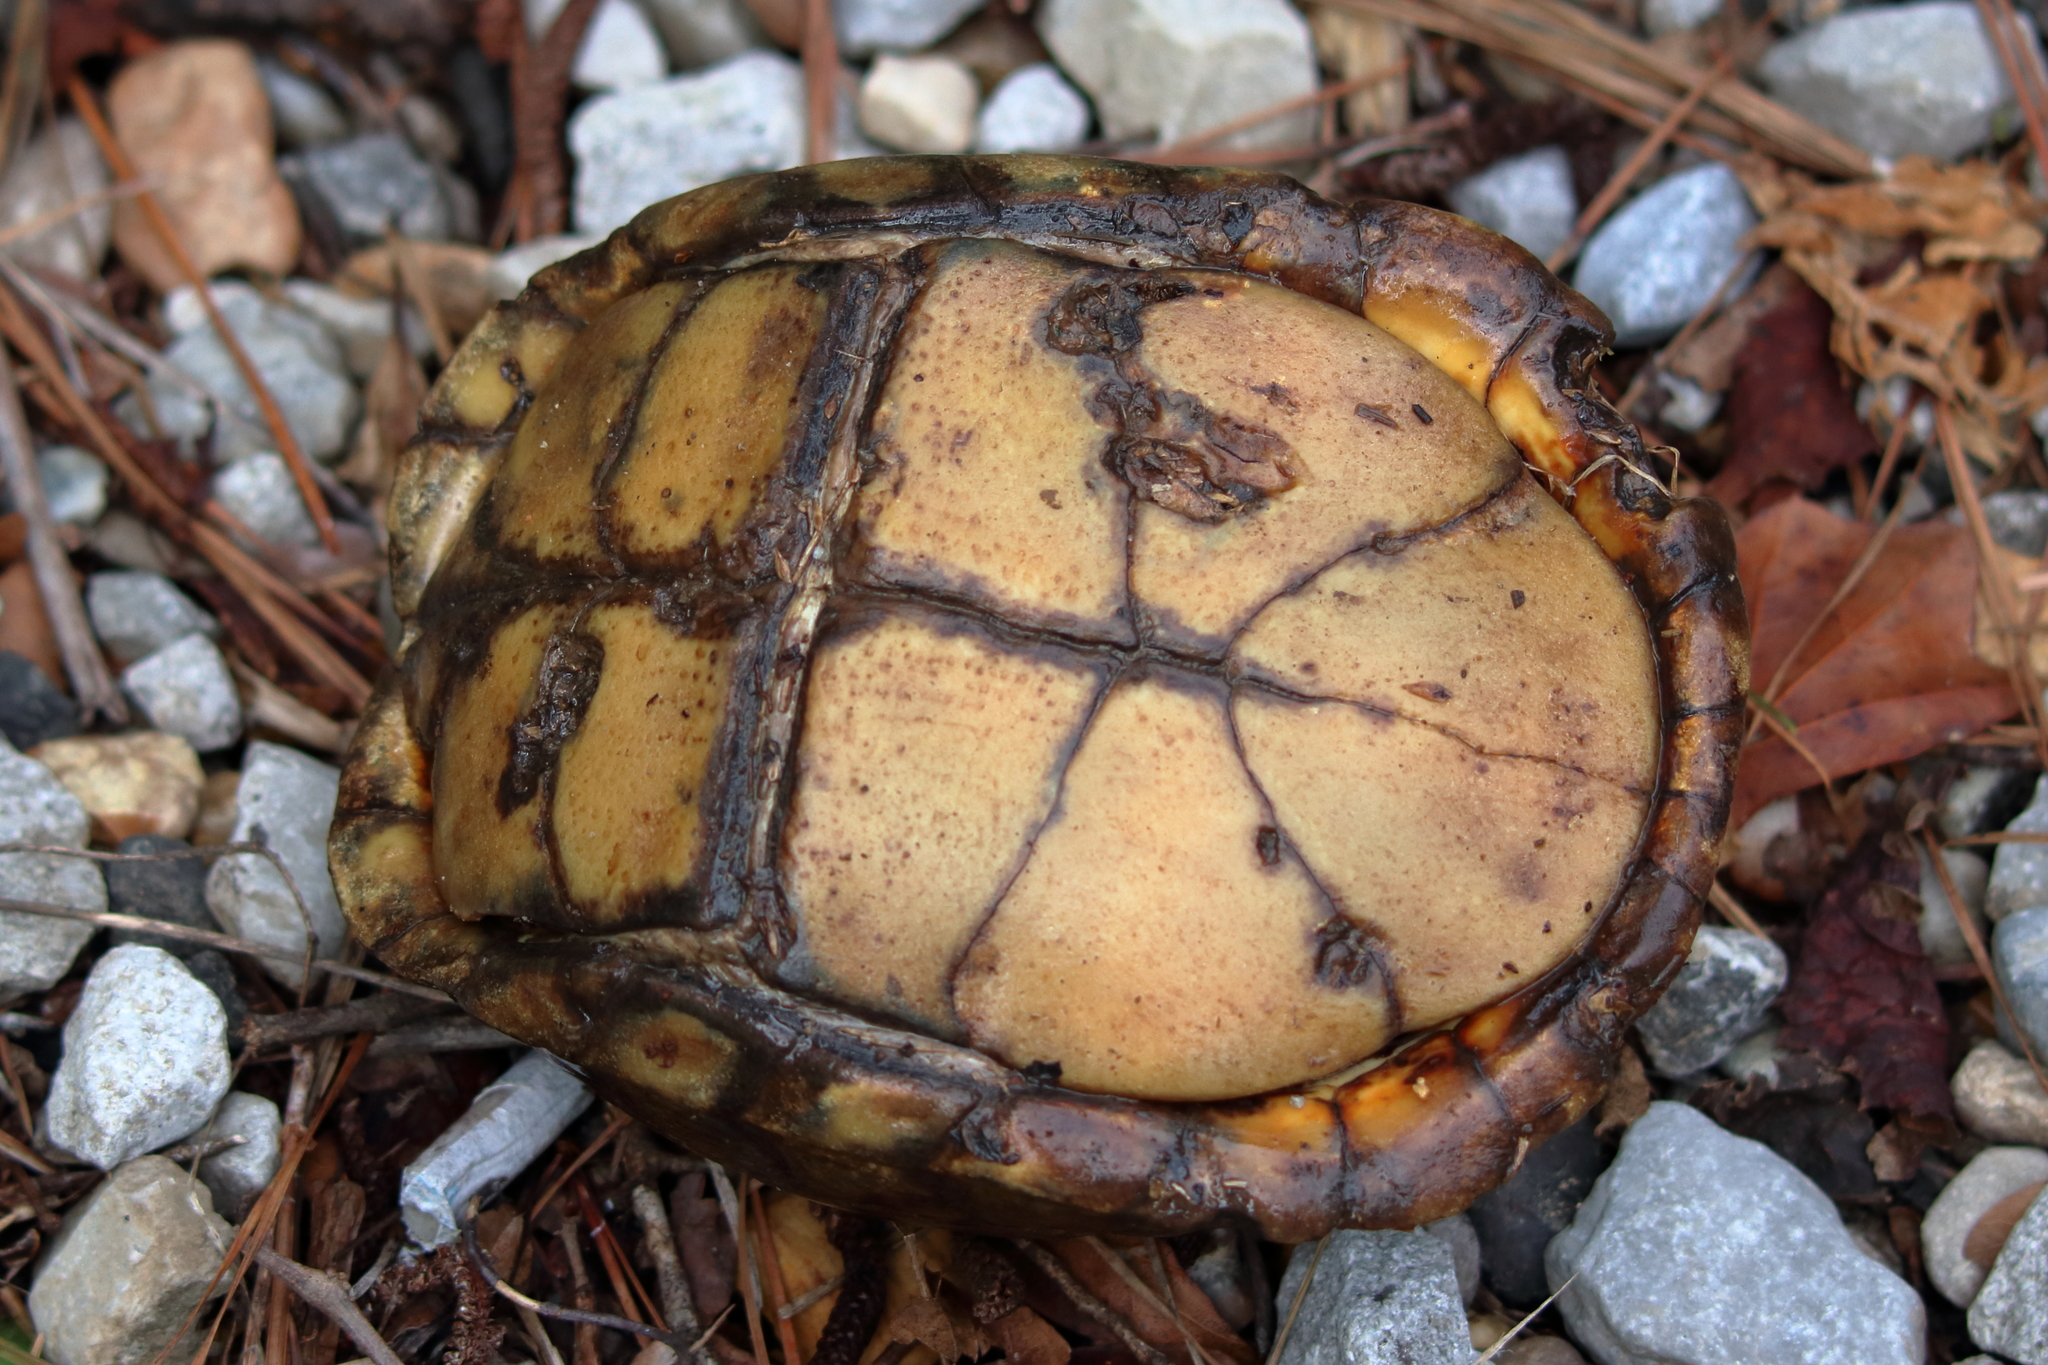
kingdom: Animalia
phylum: Chordata
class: Testudines
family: Emydidae
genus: Terrapene
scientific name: Terrapene carolina
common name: Common box turtle
